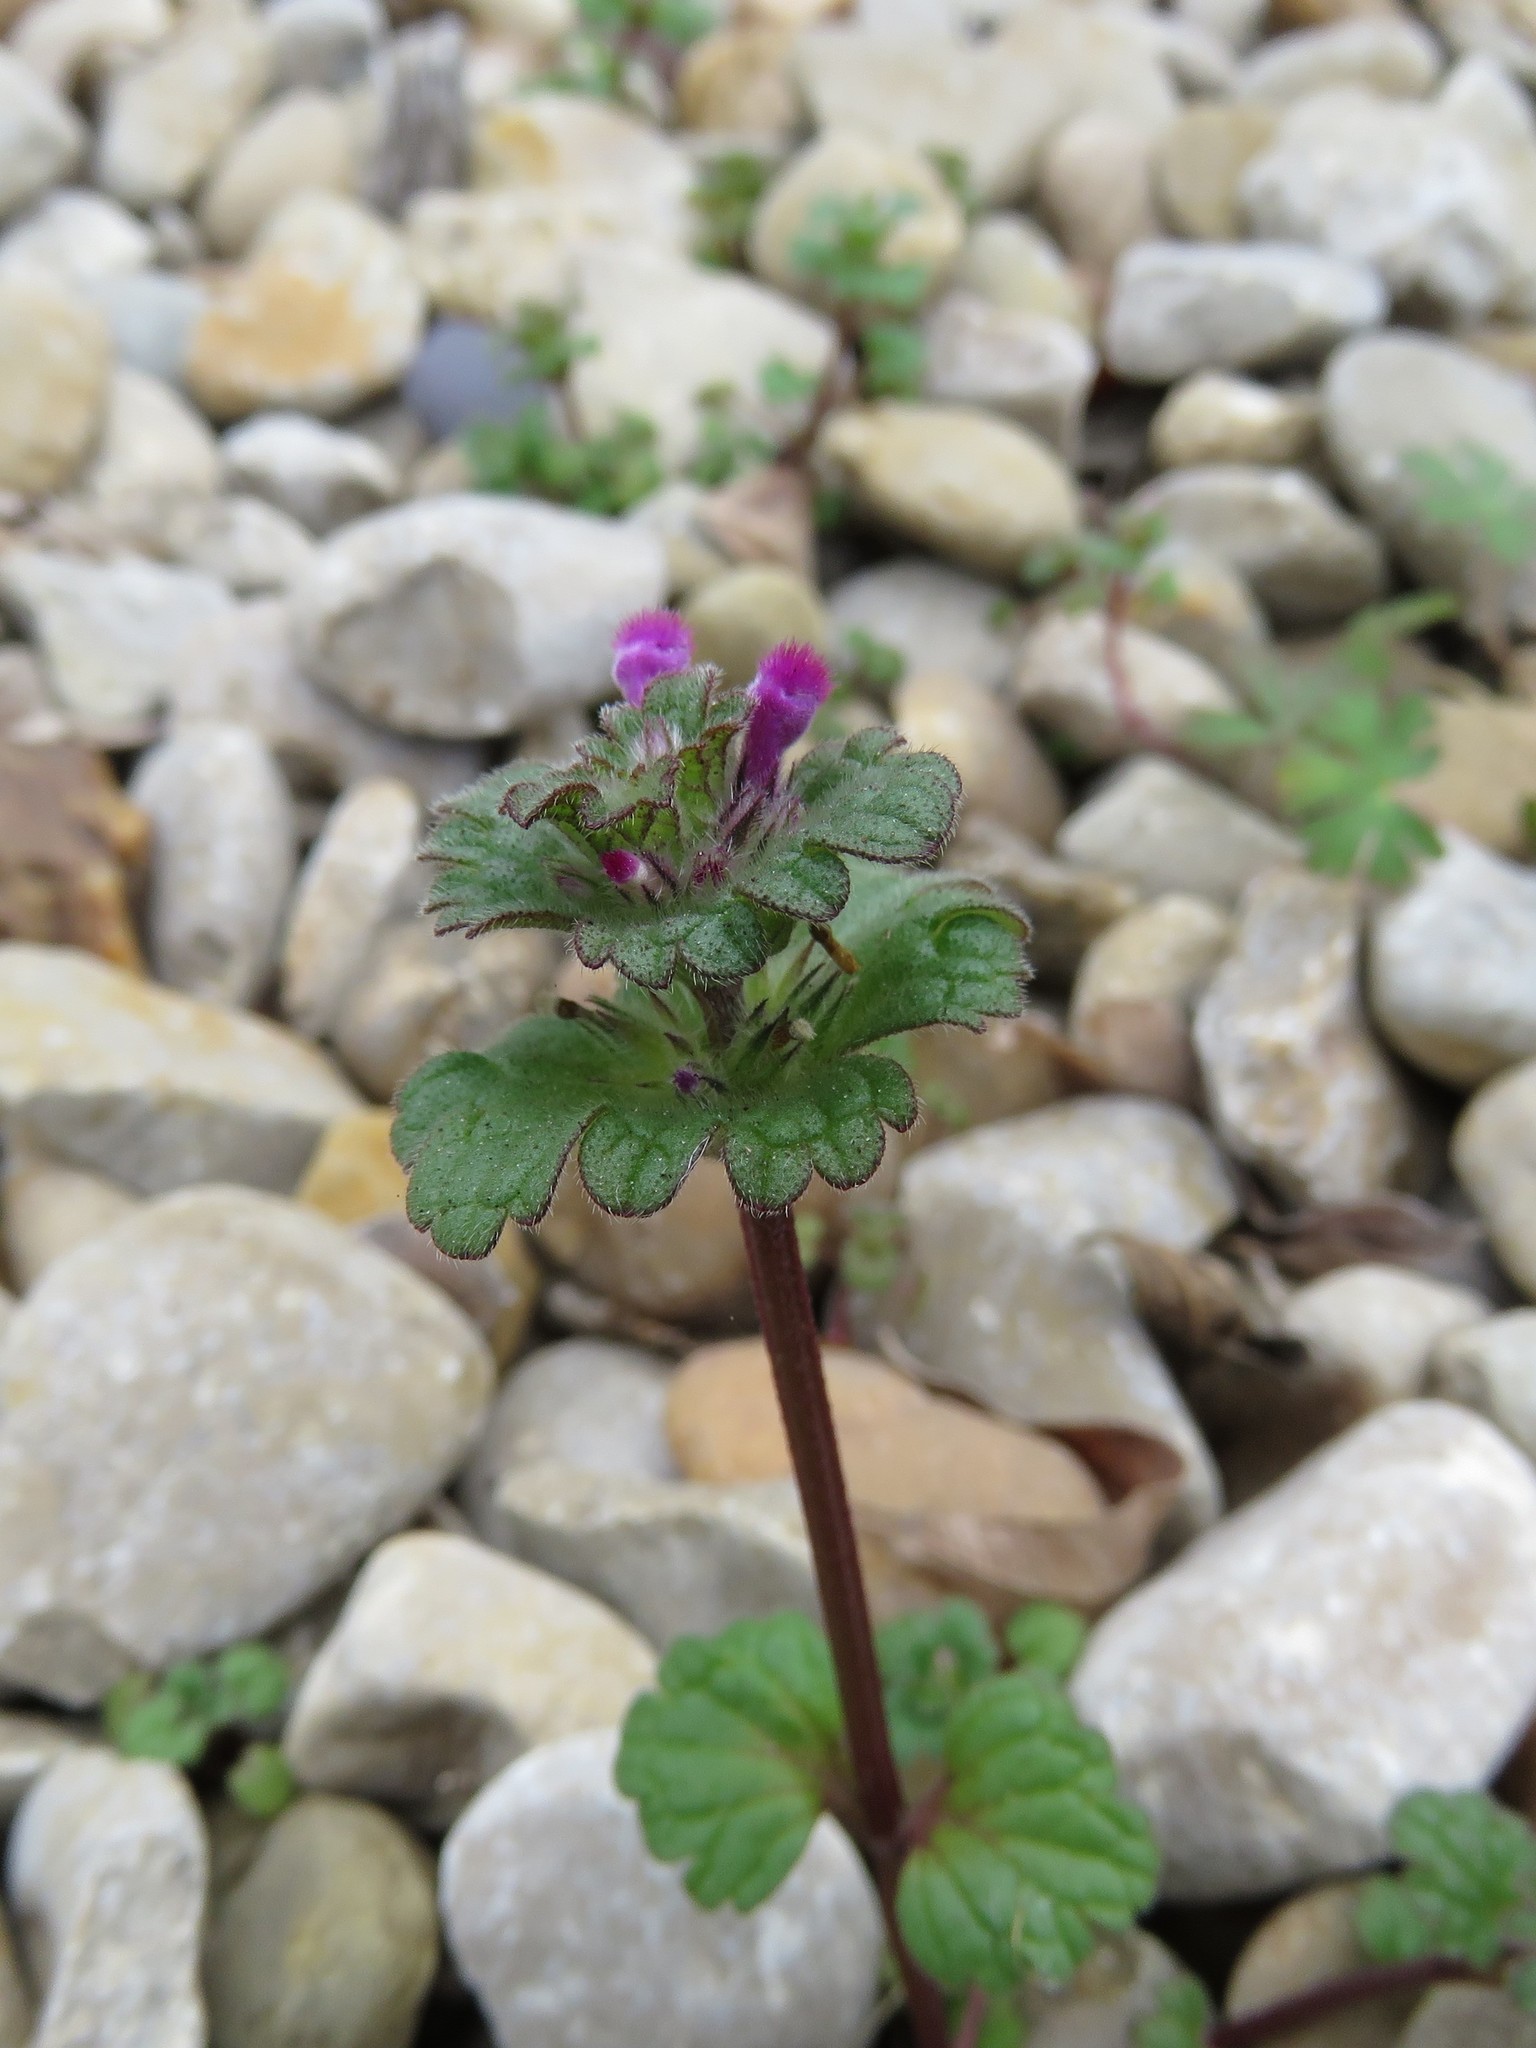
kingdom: Plantae
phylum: Tracheophyta
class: Magnoliopsida
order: Lamiales
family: Lamiaceae
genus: Lamium
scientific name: Lamium amplexicaule
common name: Henbit dead-nettle
